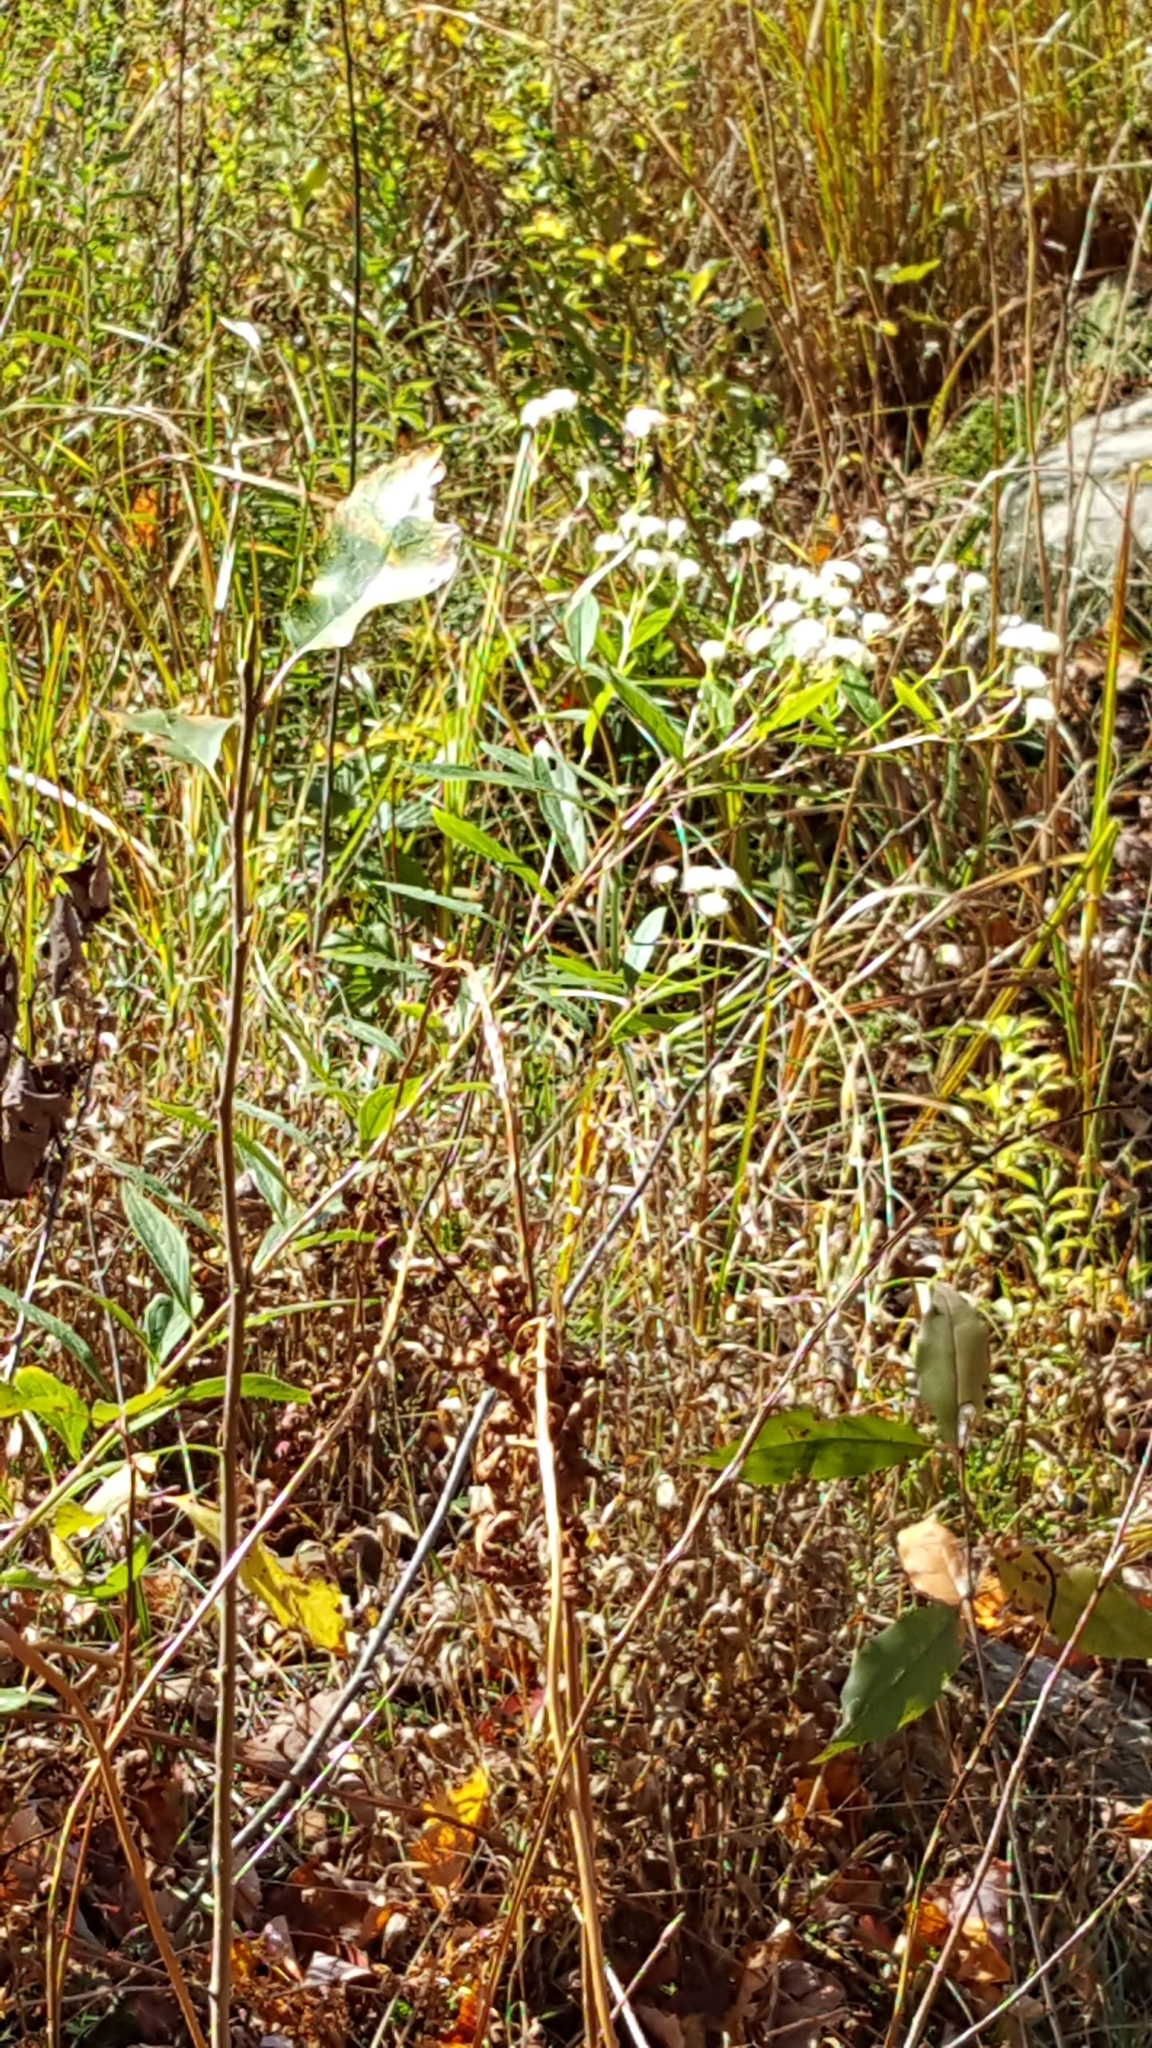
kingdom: Plantae
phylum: Tracheophyta
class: Magnoliopsida
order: Asterales
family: Asteraceae
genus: Doellingeria
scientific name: Doellingeria umbellata
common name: Flat-top white aster
